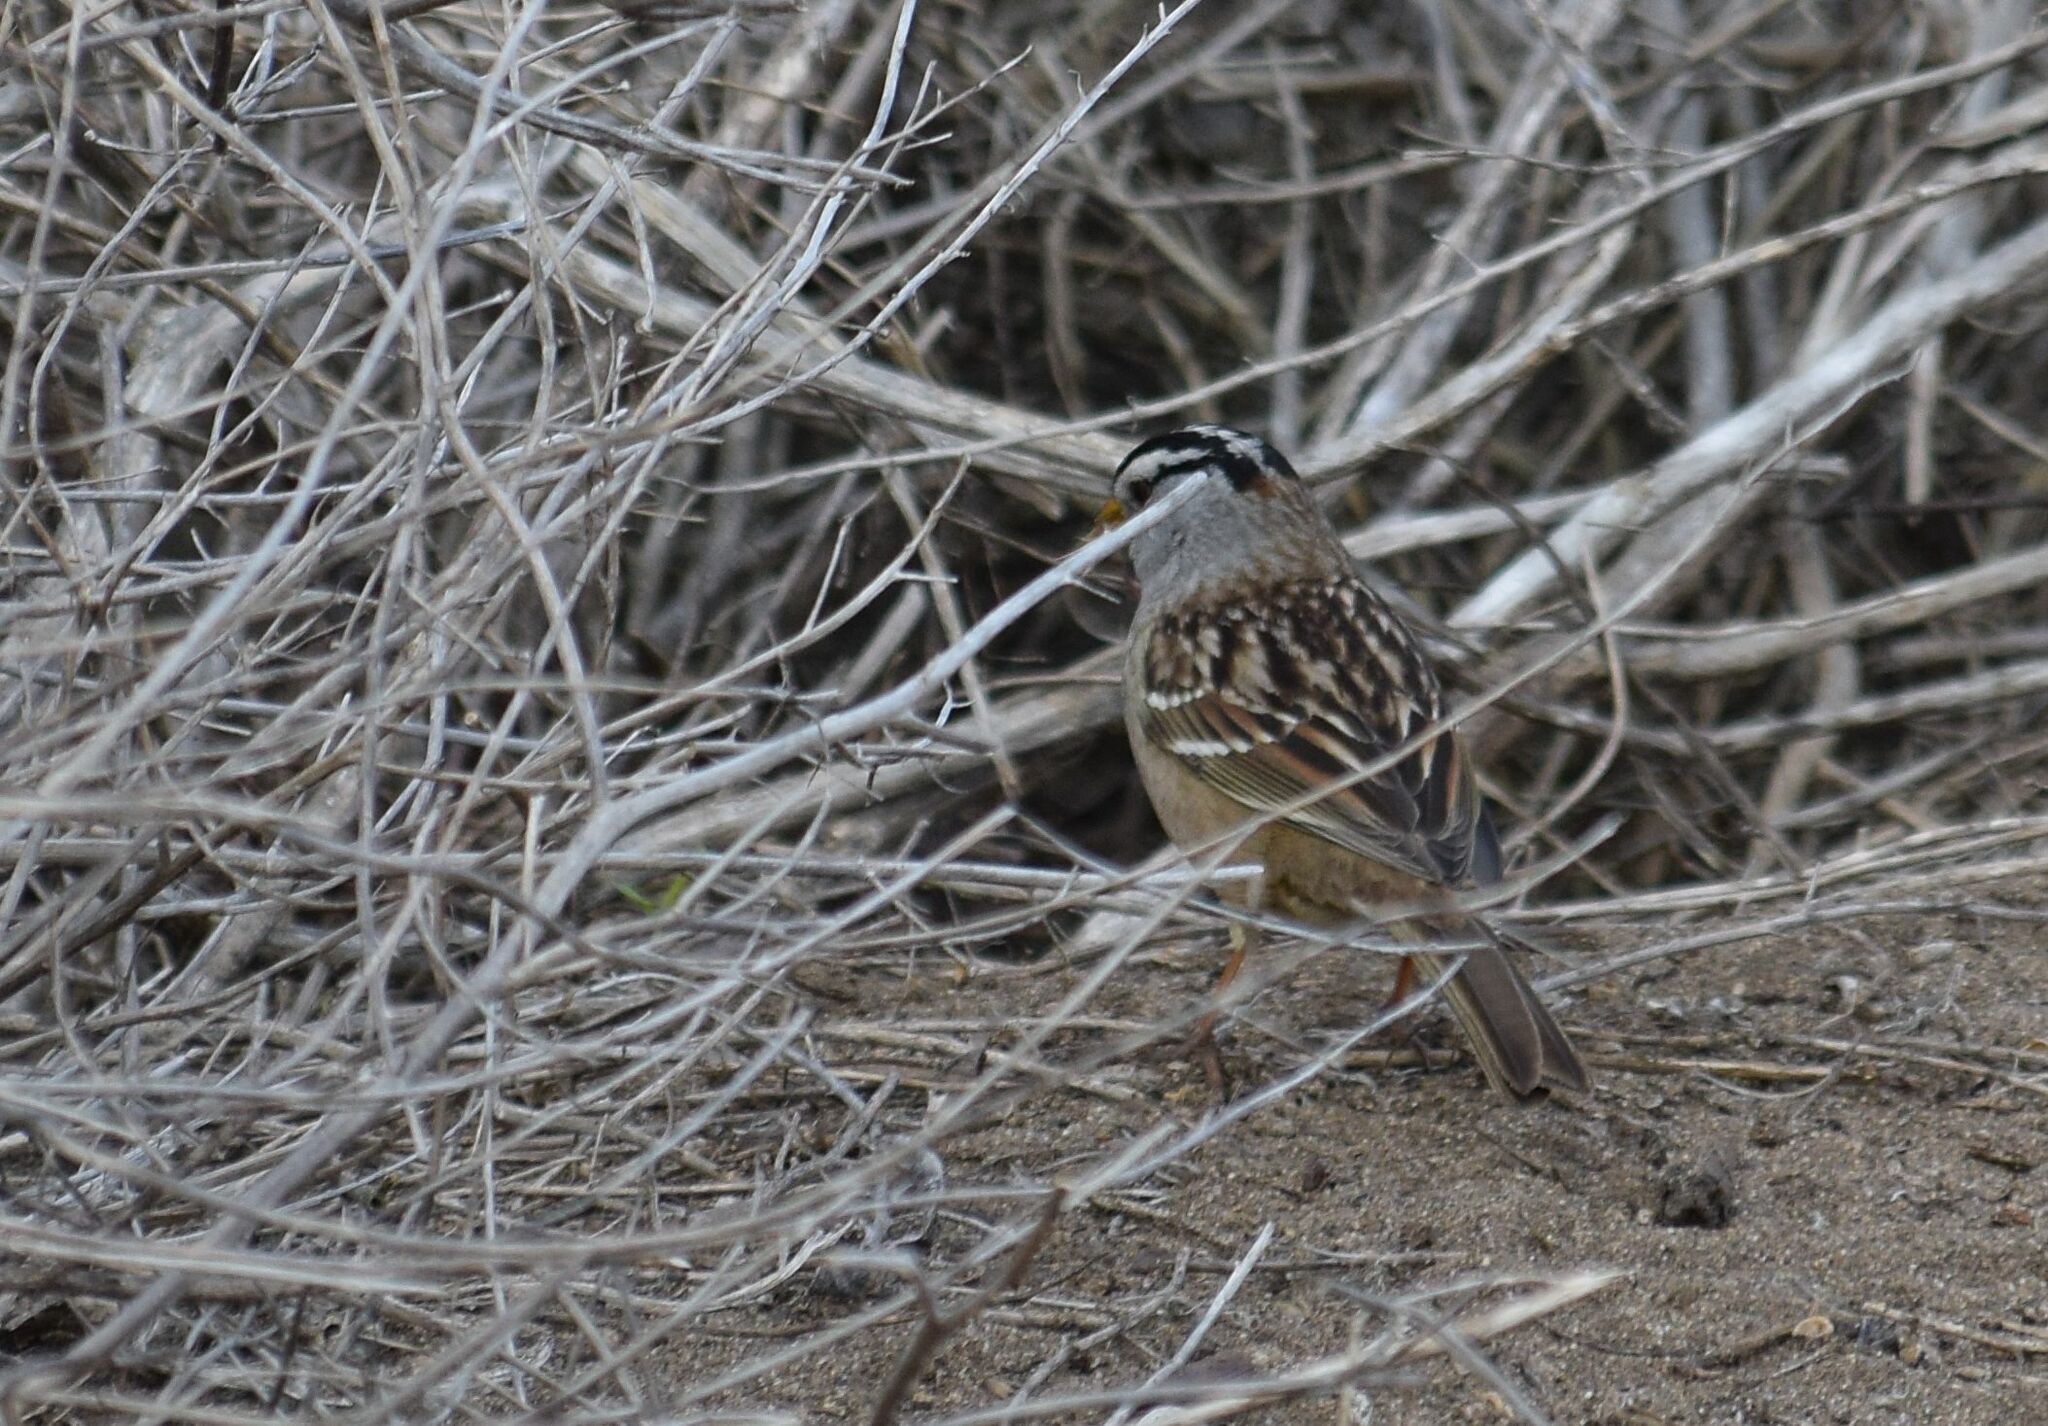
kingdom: Animalia
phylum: Chordata
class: Aves
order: Passeriformes
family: Passerellidae
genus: Zonotrichia
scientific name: Zonotrichia leucophrys
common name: White-crowned sparrow
